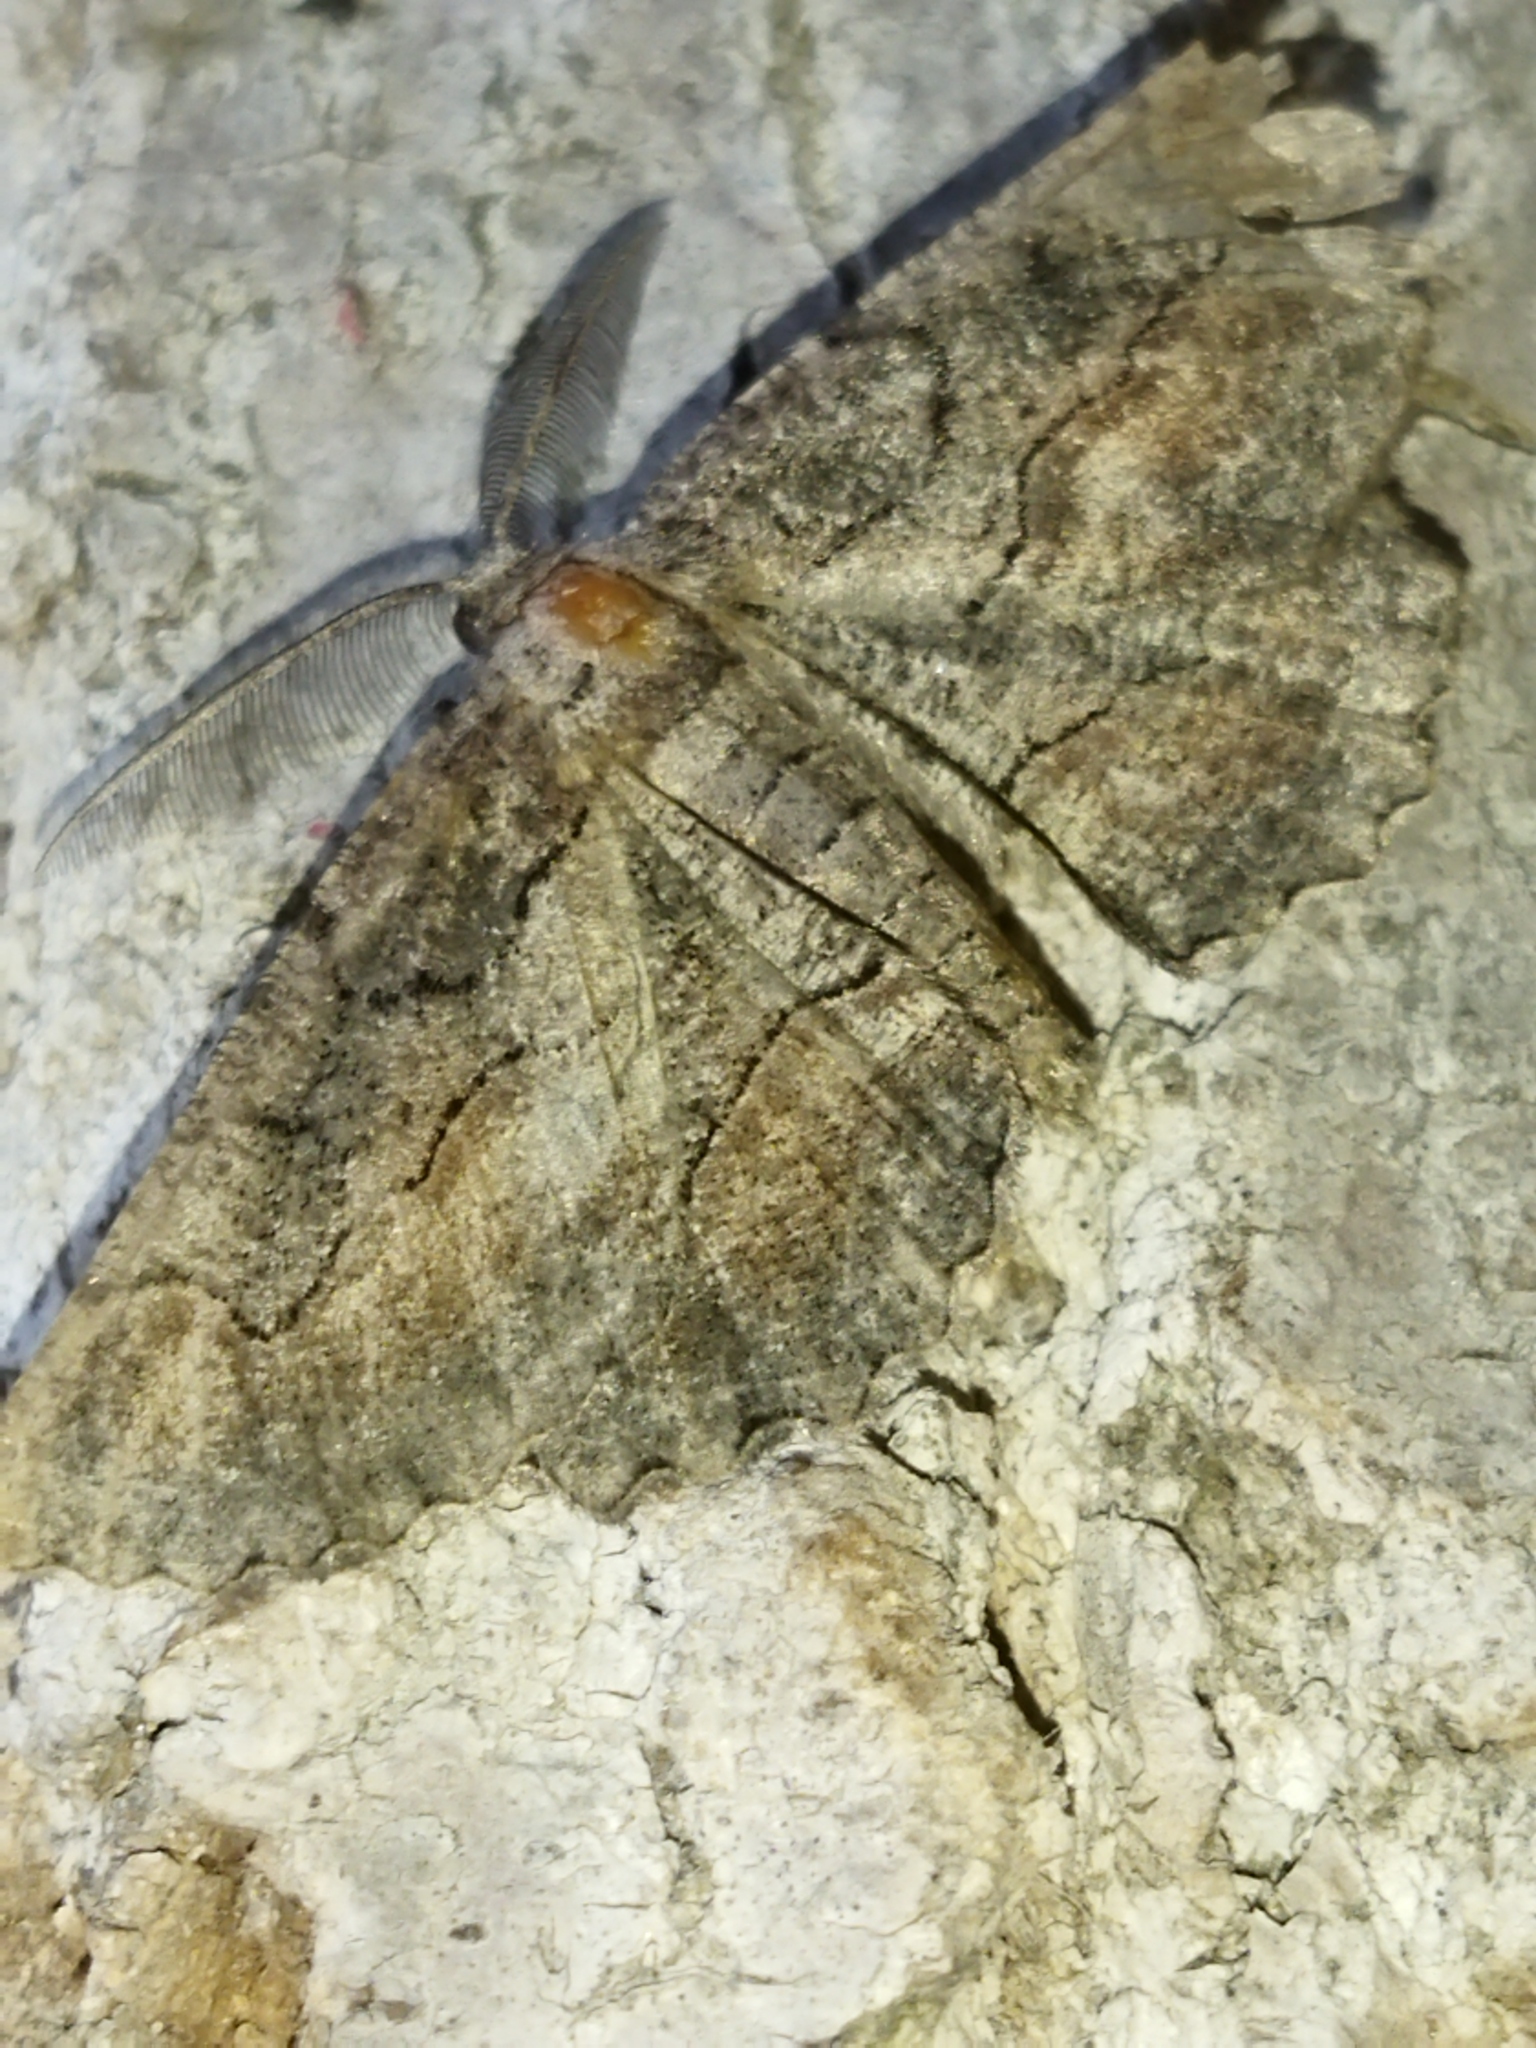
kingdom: Animalia
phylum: Arthropoda
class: Insecta
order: Lepidoptera
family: Geometridae
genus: Nychiodes
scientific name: Nychiodes waltheri
